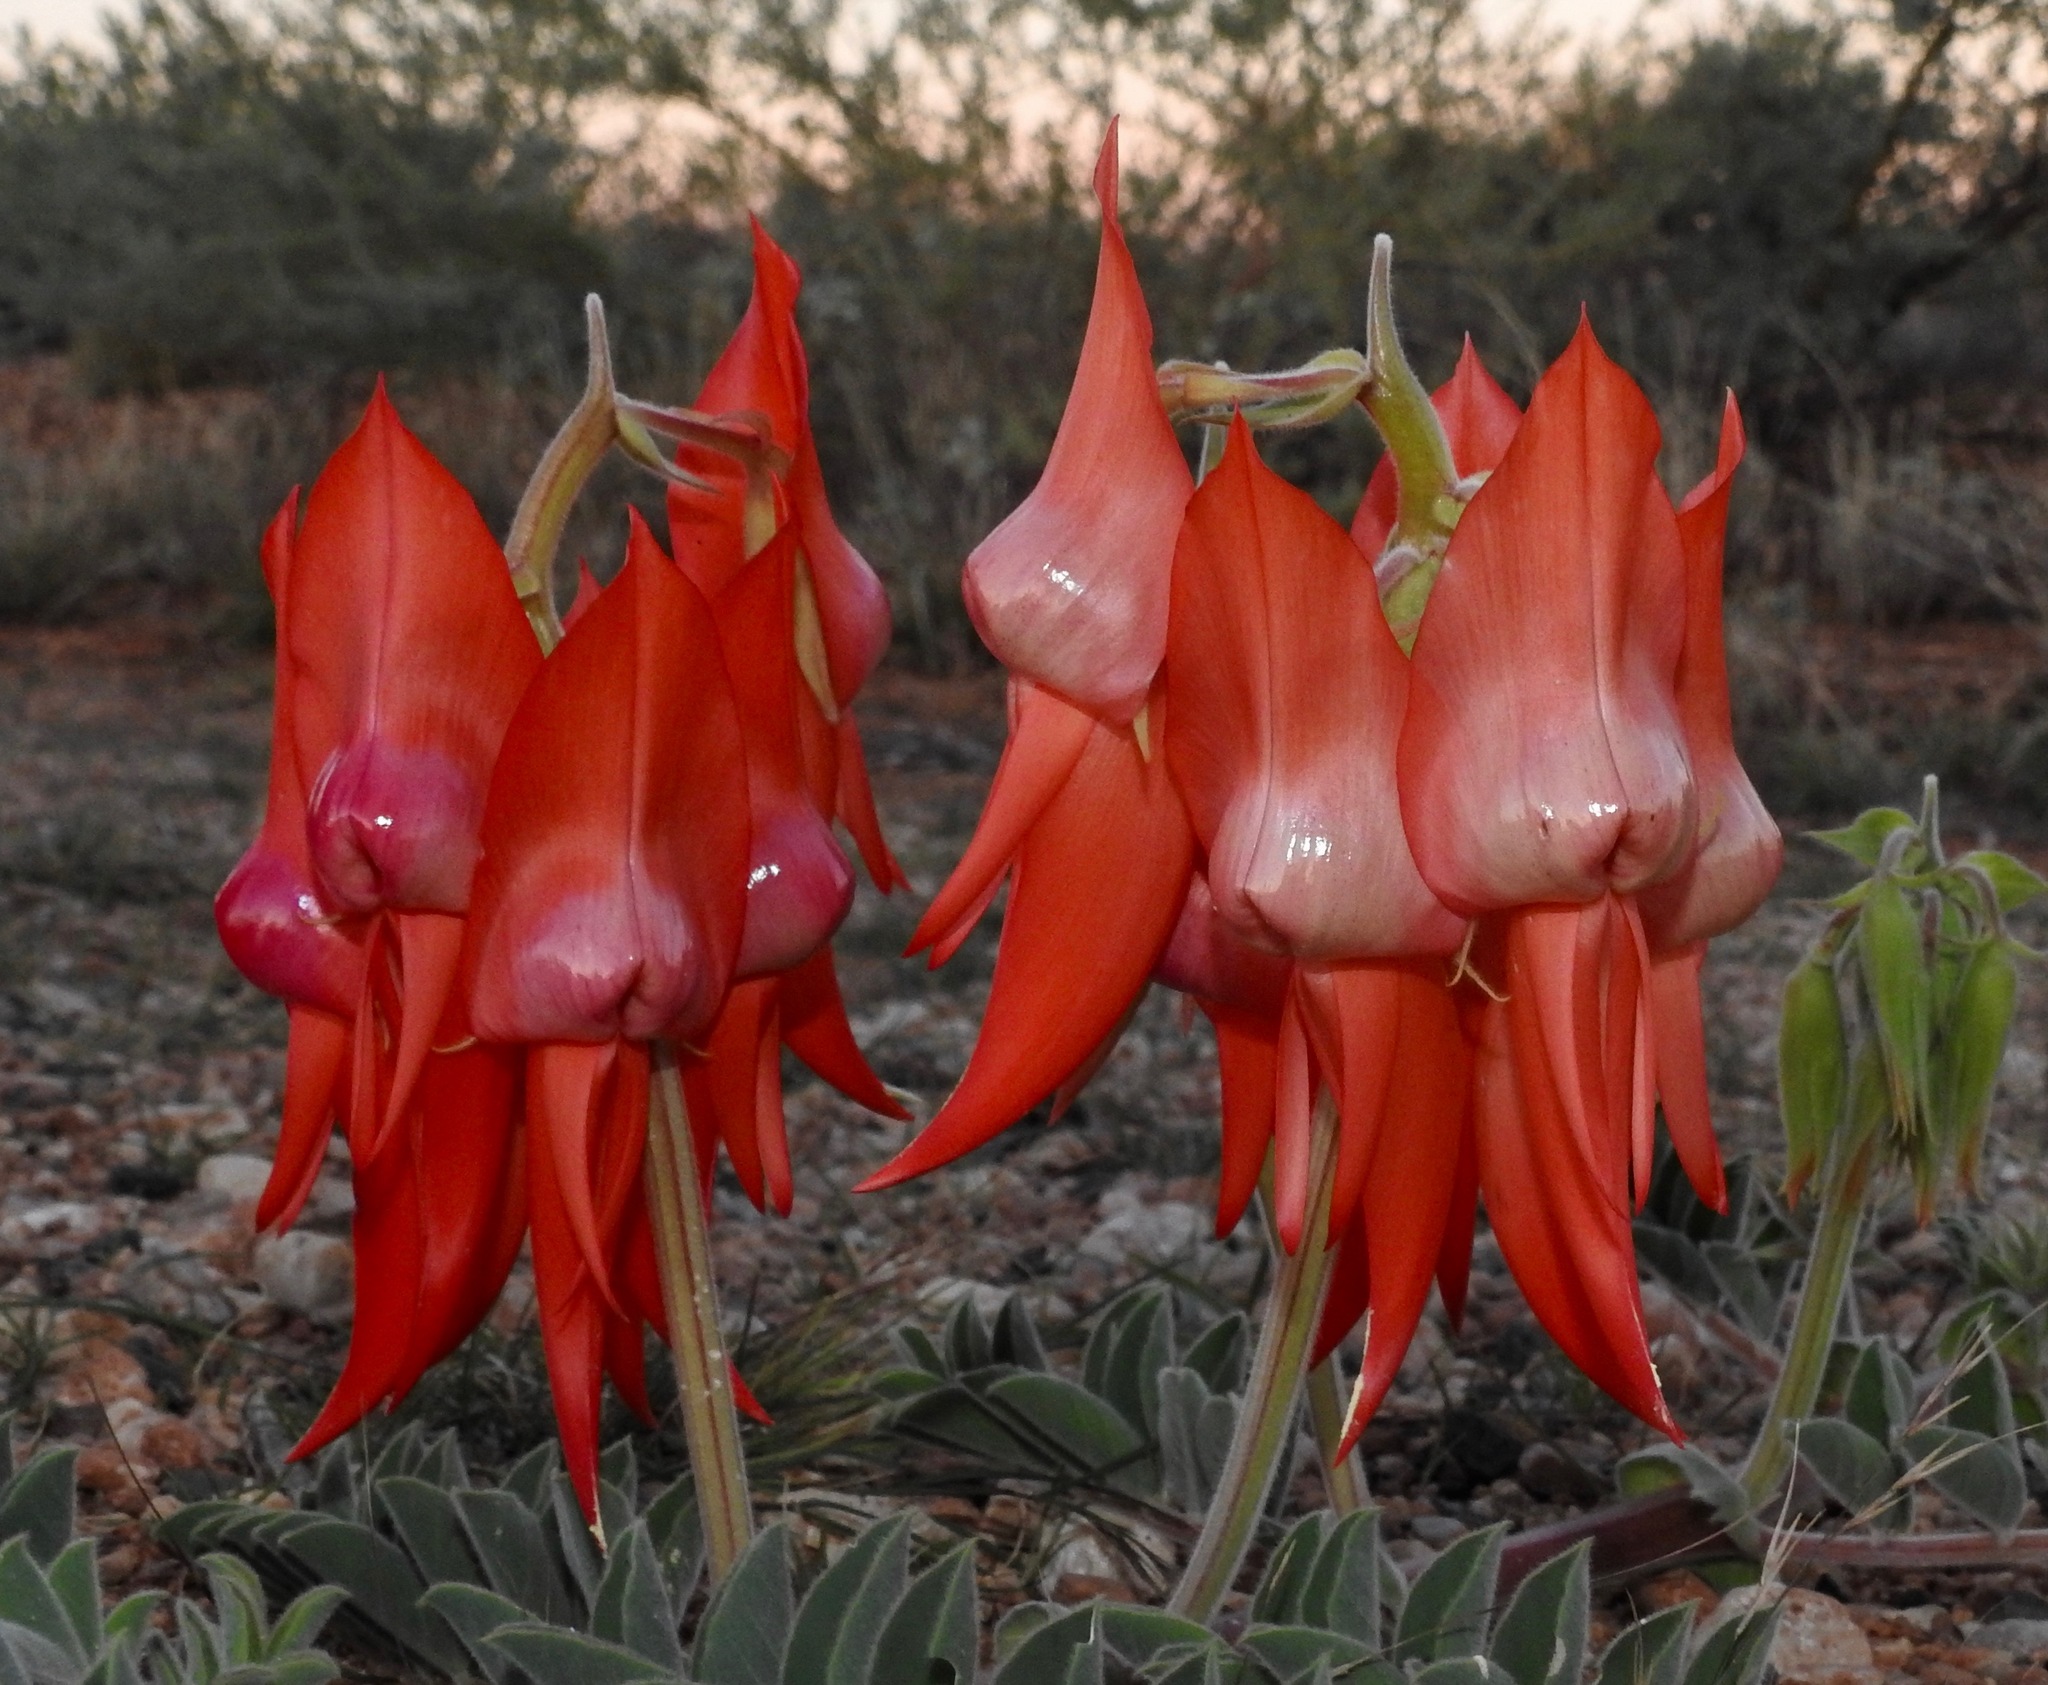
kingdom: Plantae
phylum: Tracheophyta
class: Magnoliopsida
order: Fabales
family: Fabaceae
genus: Swainsona
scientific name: Swainsona formosa
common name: Sturt's desert-pea
